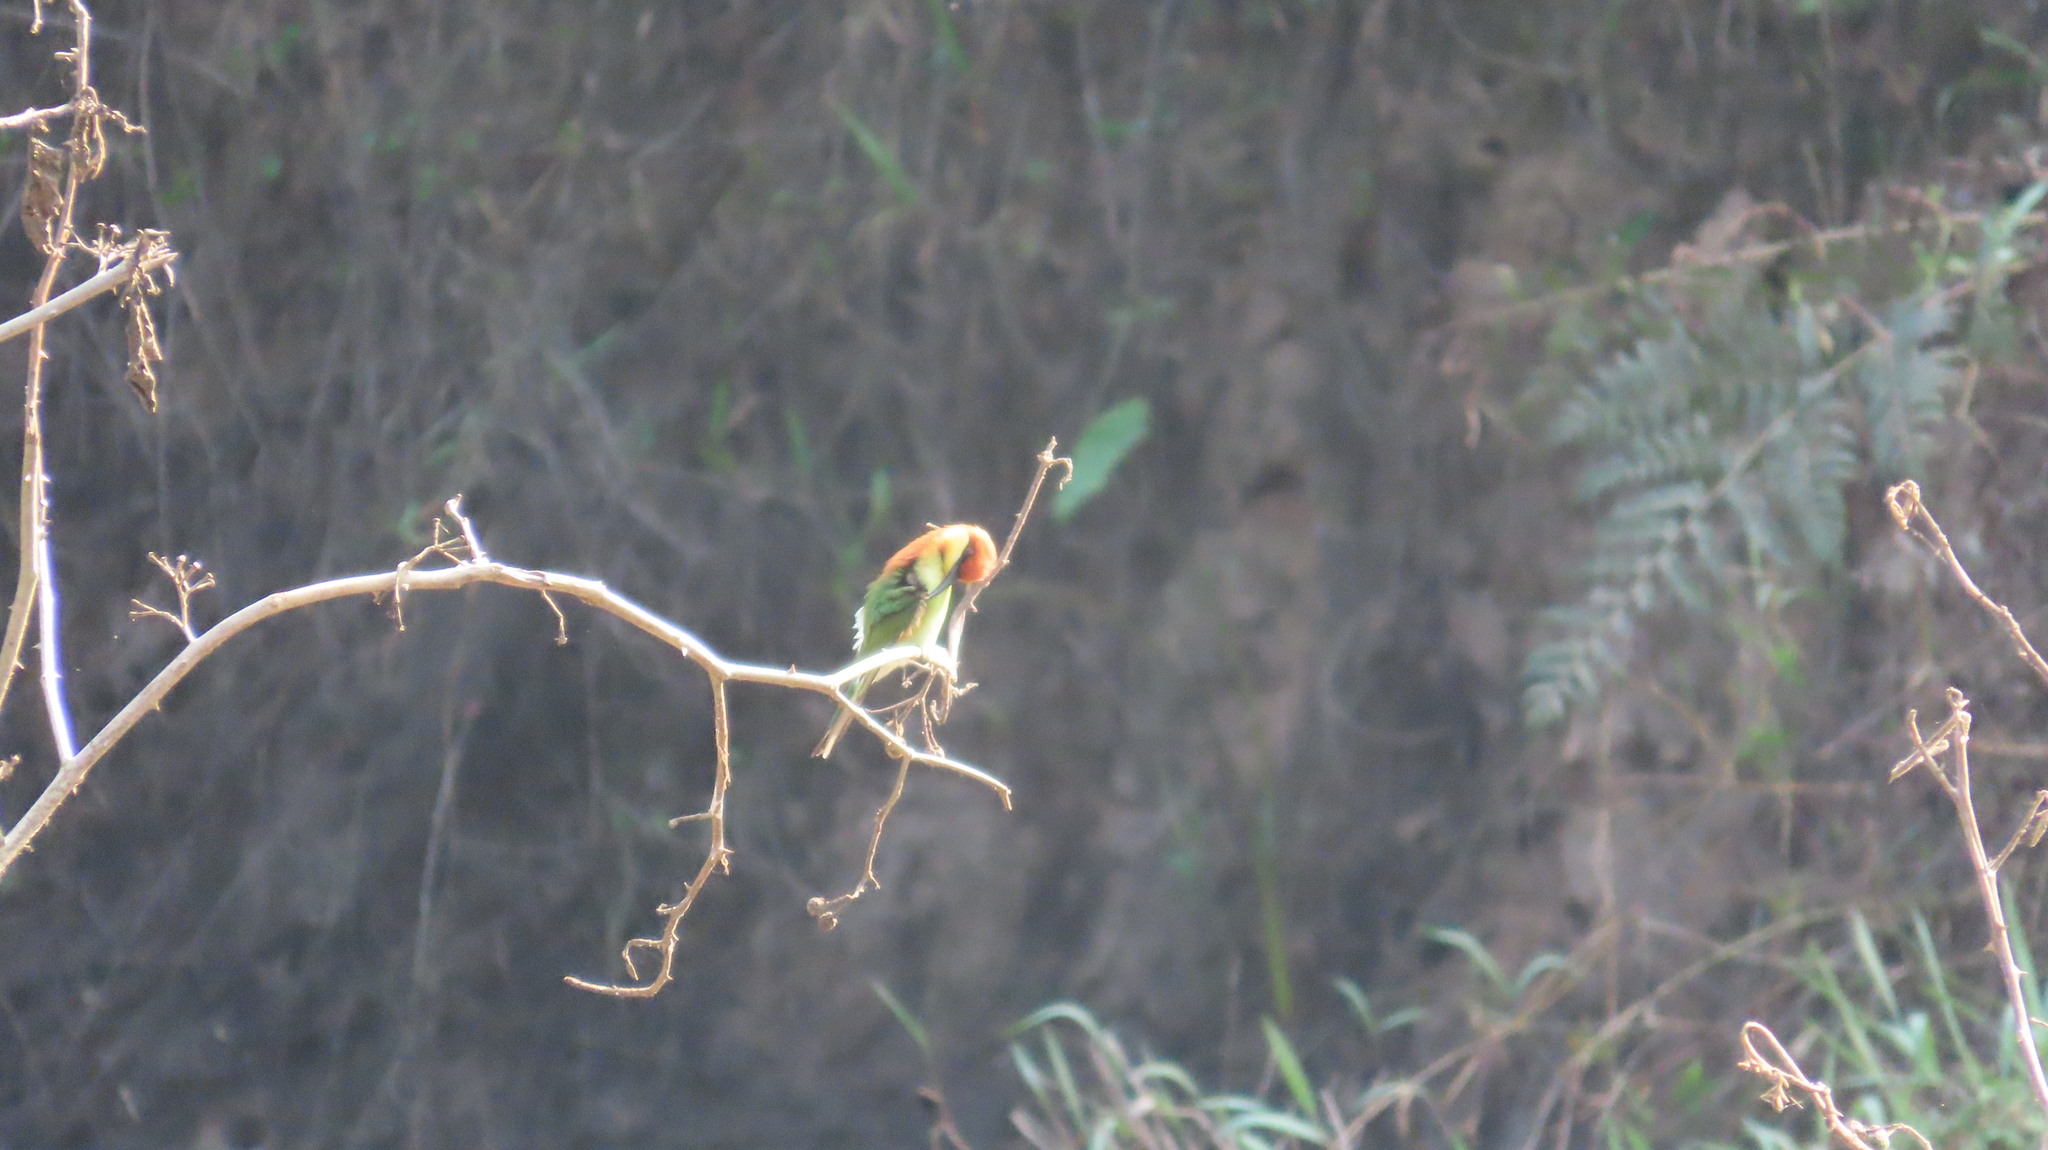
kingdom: Animalia
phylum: Chordata
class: Aves
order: Coraciiformes
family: Meropidae
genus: Merops
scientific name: Merops leschenaulti
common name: Chestnut-headed bee-eater
